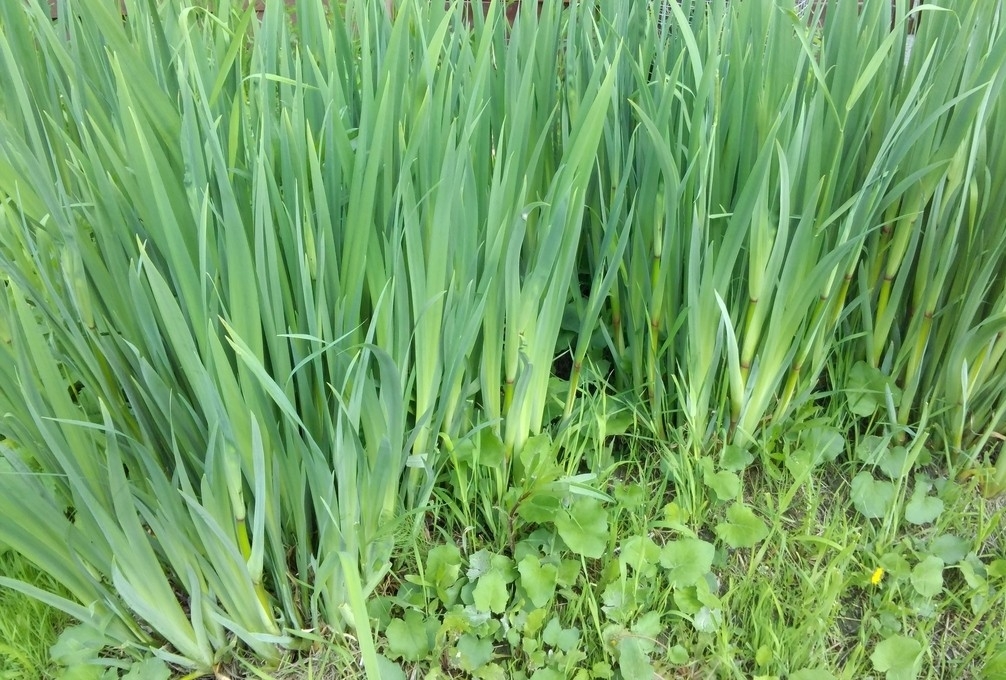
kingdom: Plantae
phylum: Tracheophyta
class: Liliopsida
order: Asparagales
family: Iridaceae
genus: Iris
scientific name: Iris pseudacorus
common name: Yellow flag
